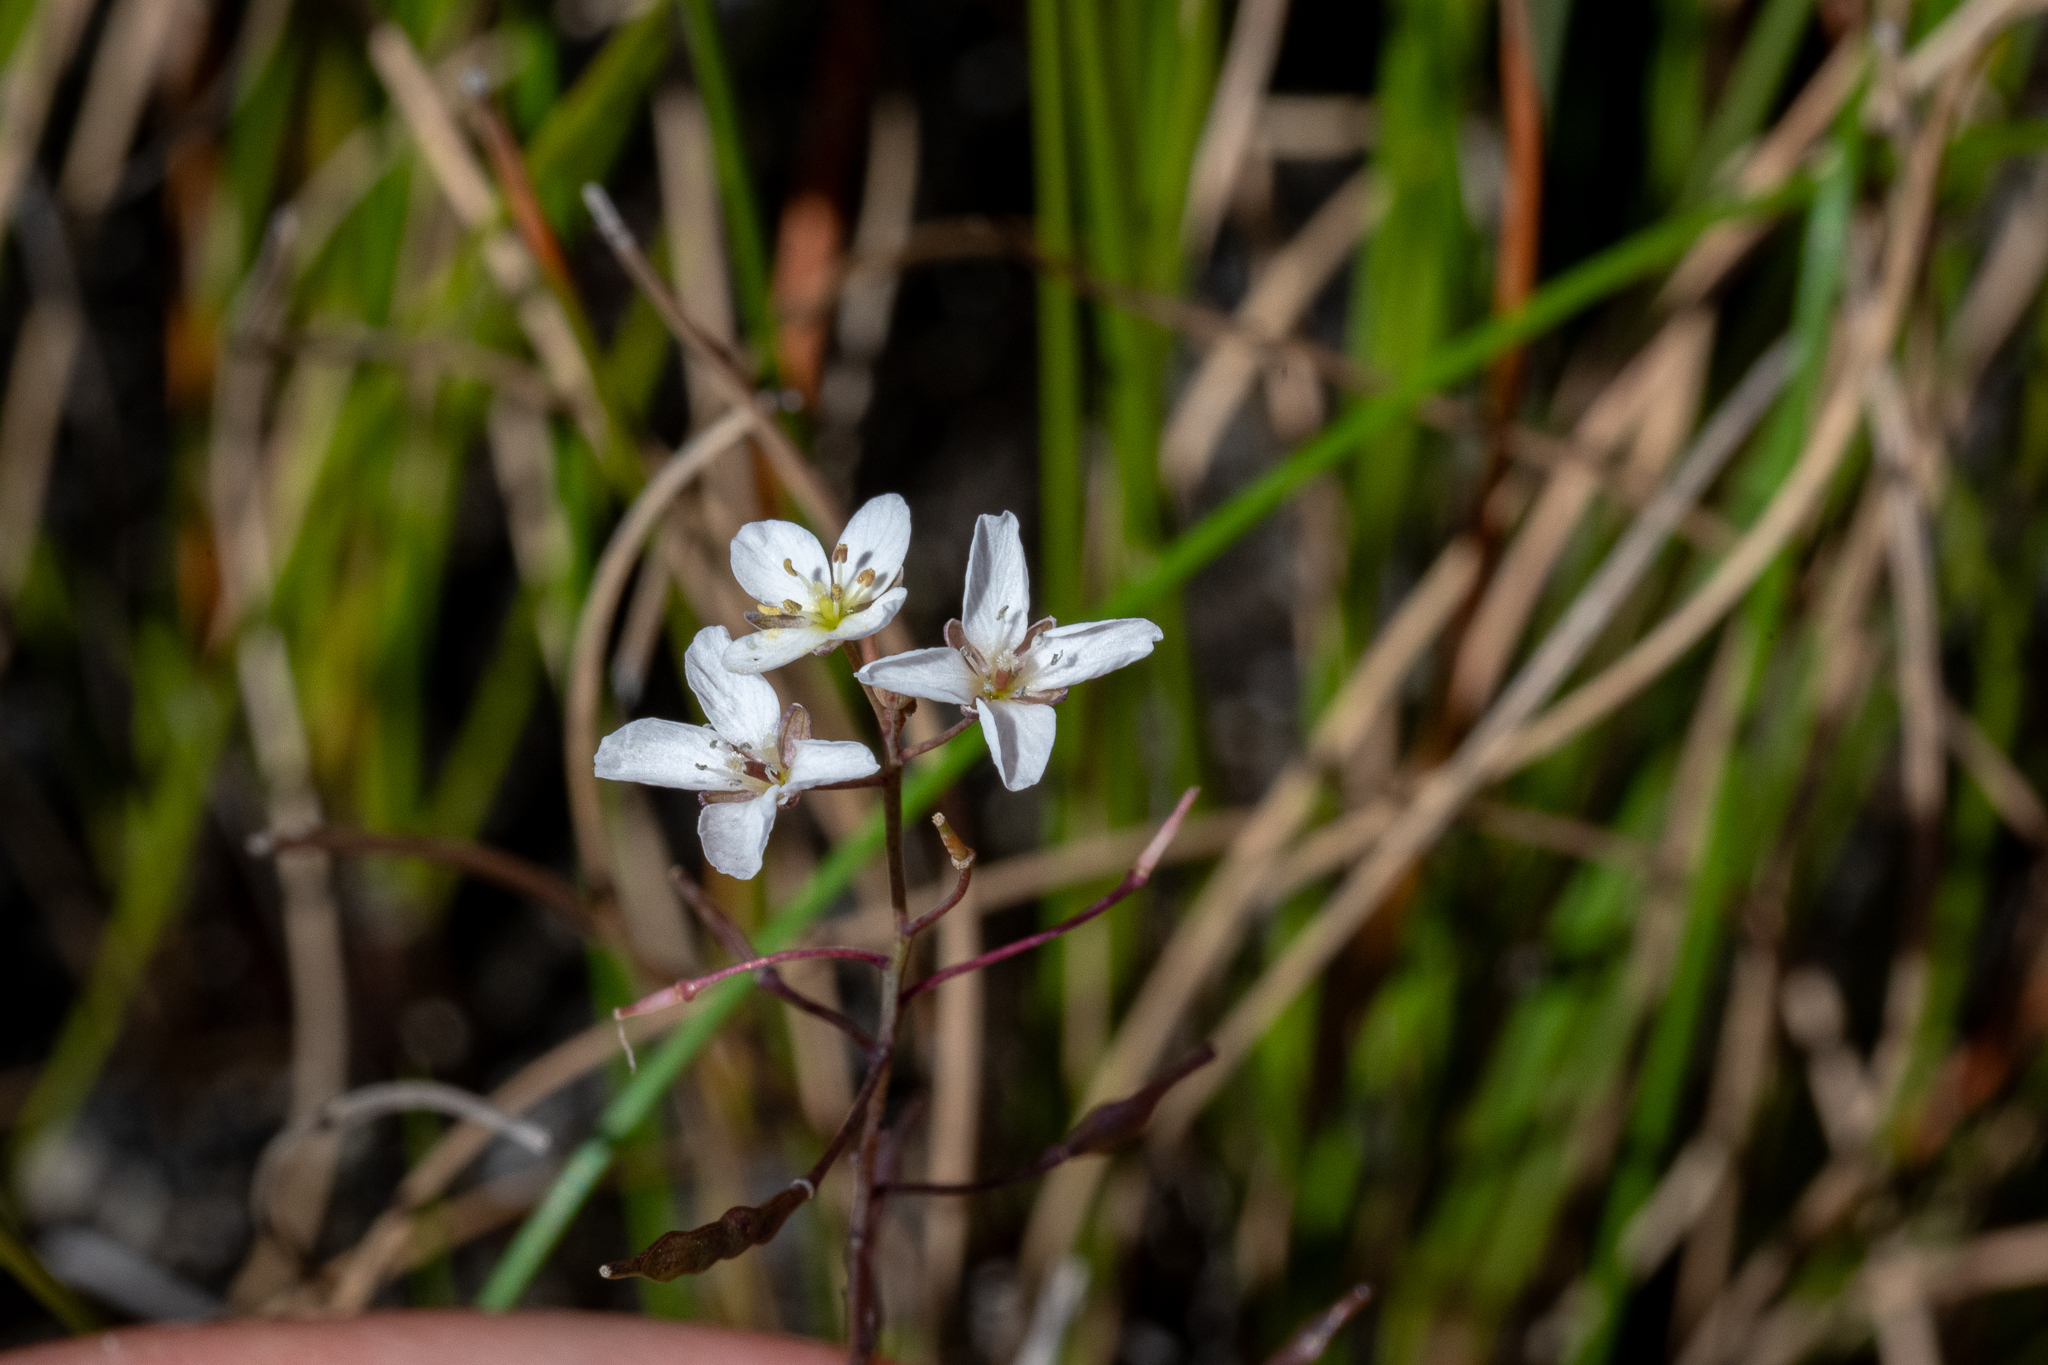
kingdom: Plantae
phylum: Tracheophyta
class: Magnoliopsida
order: Brassicales
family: Brassicaceae
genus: Heliophila
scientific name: Heliophila pusilla
